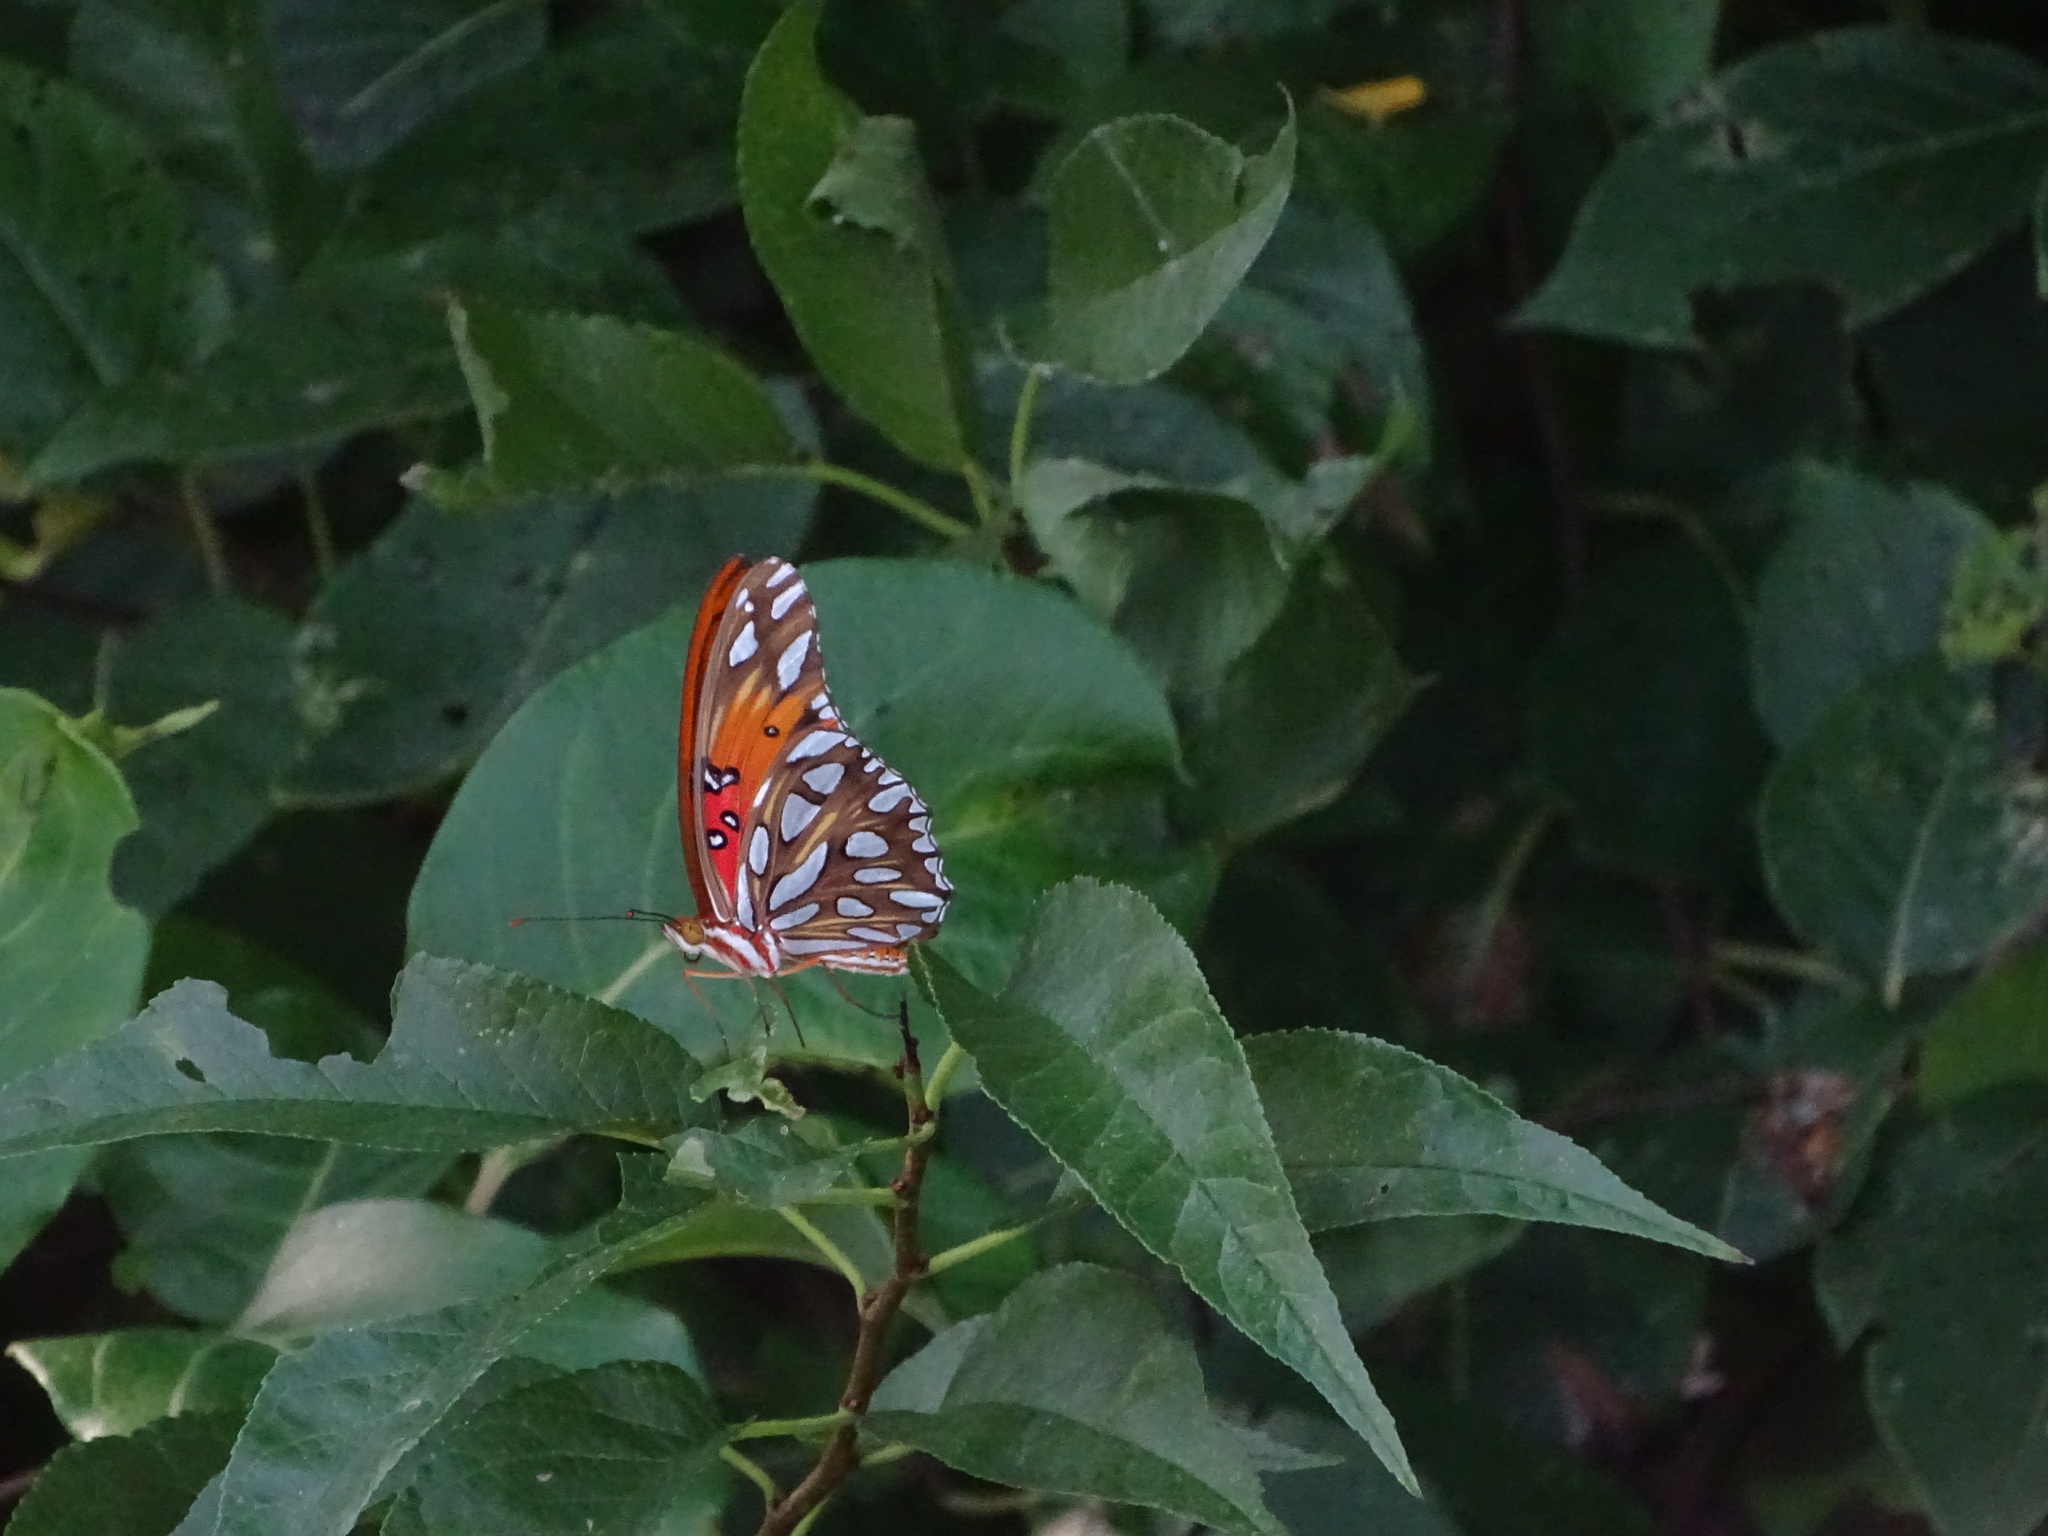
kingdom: Animalia
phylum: Arthropoda
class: Insecta
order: Lepidoptera
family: Nymphalidae
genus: Dione
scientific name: Dione vanillae
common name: Gulf fritillary
